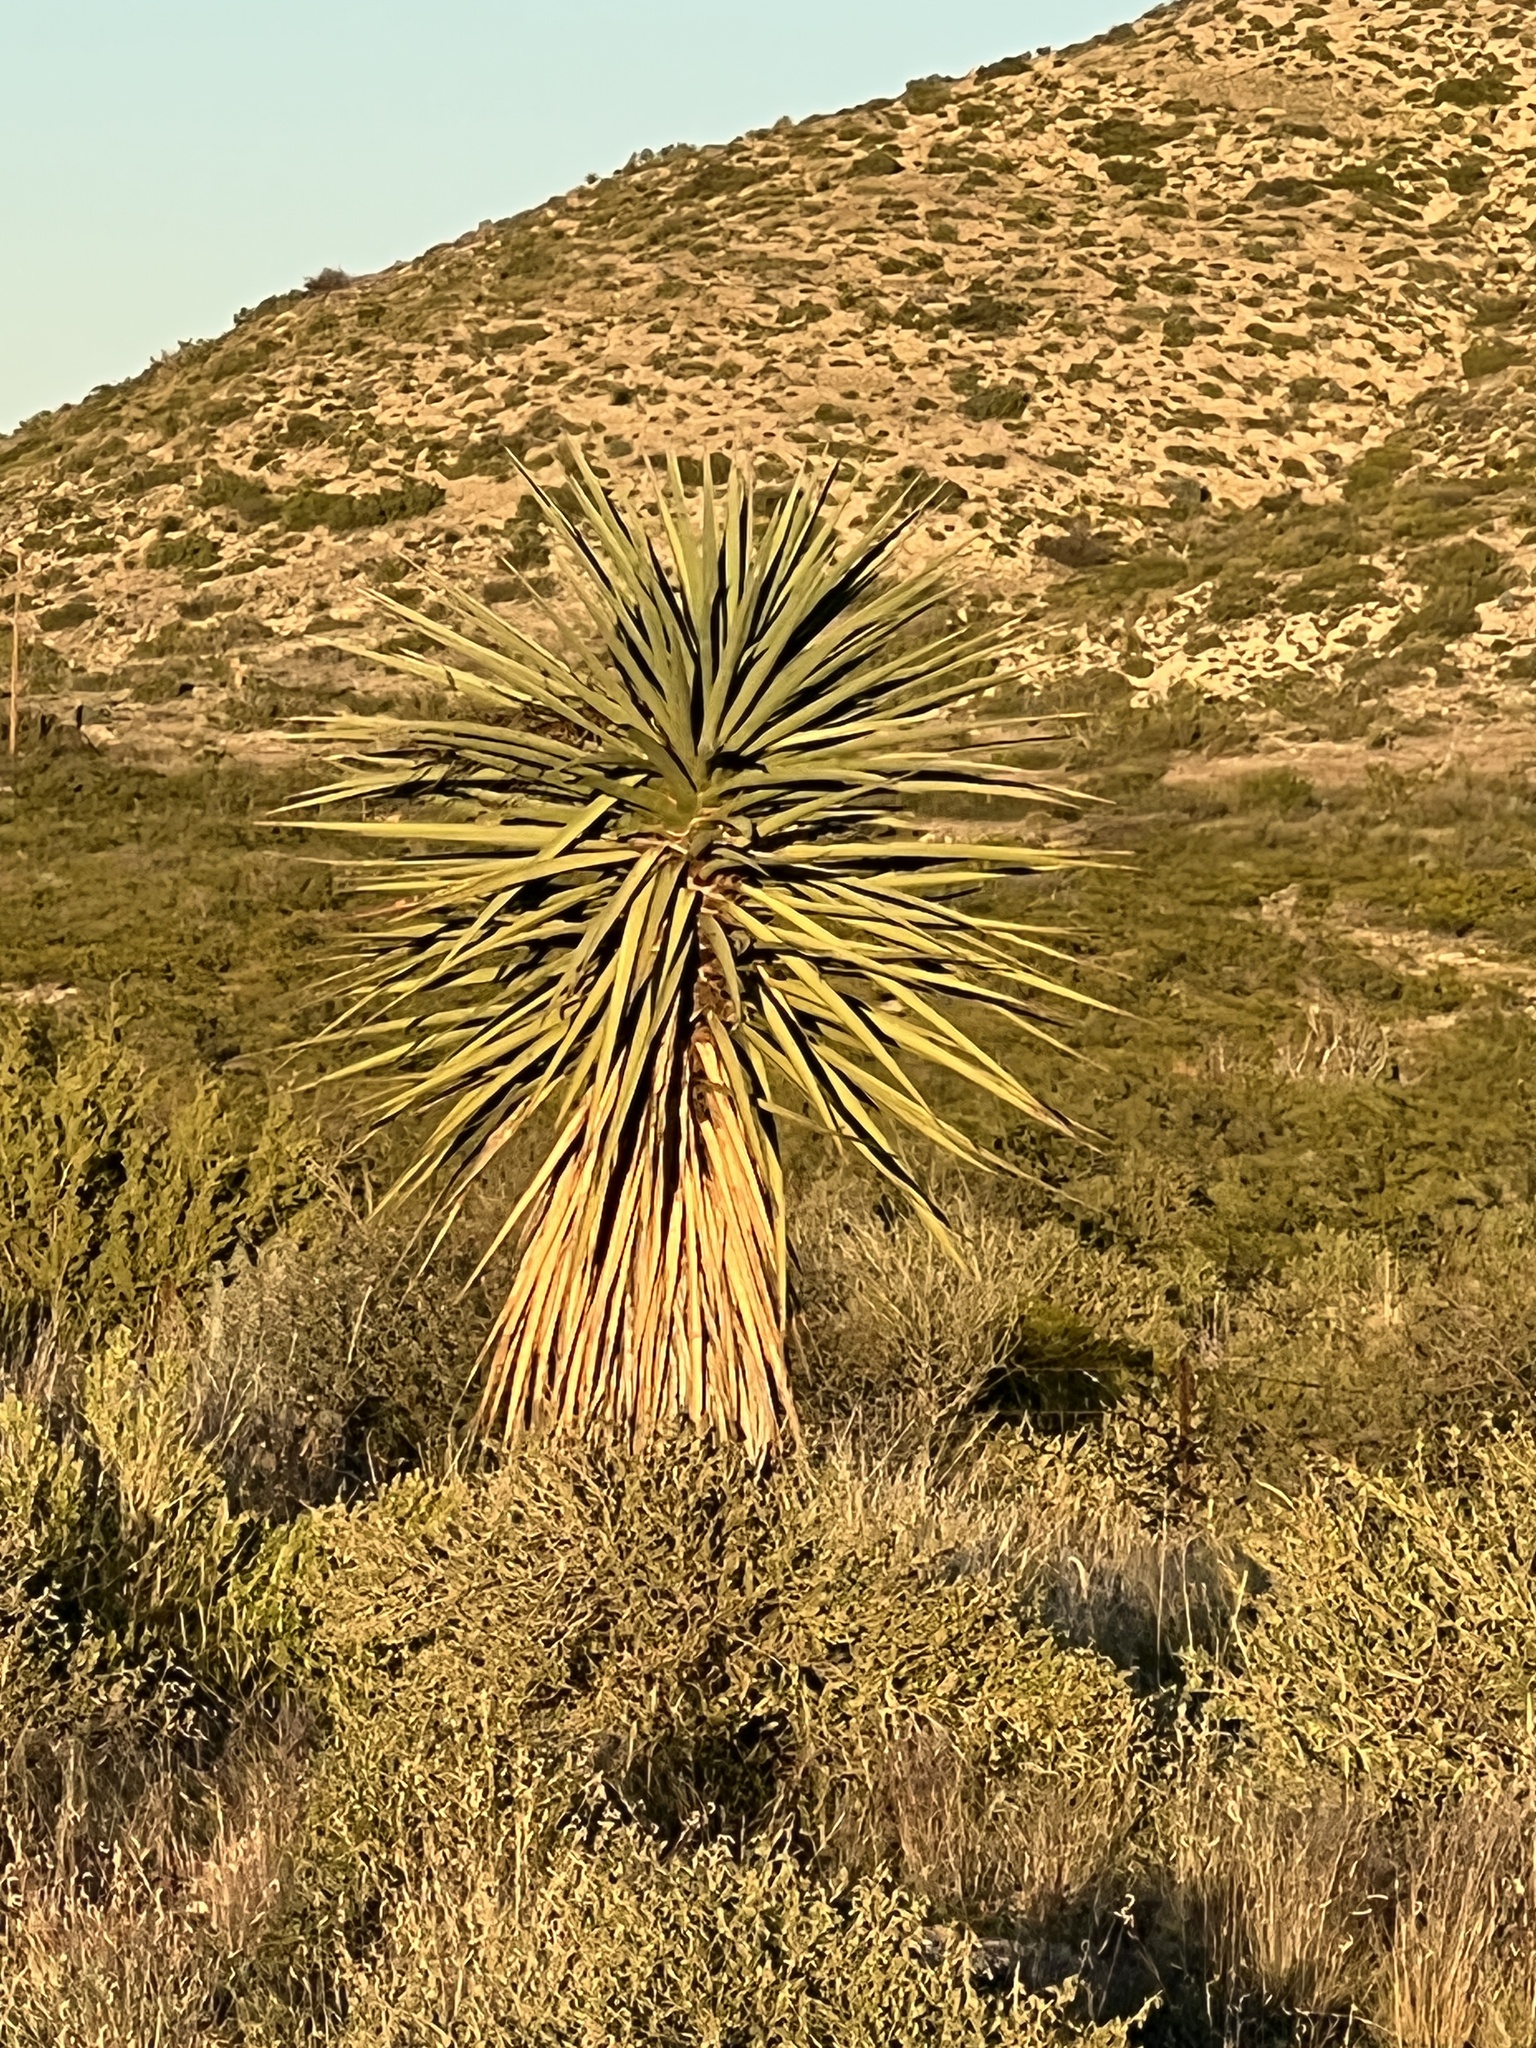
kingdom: Plantae
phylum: Tracheophyta
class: Liliopsida
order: Asparagales
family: Asparagaceae
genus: Yucca
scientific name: Yucca treculiana
